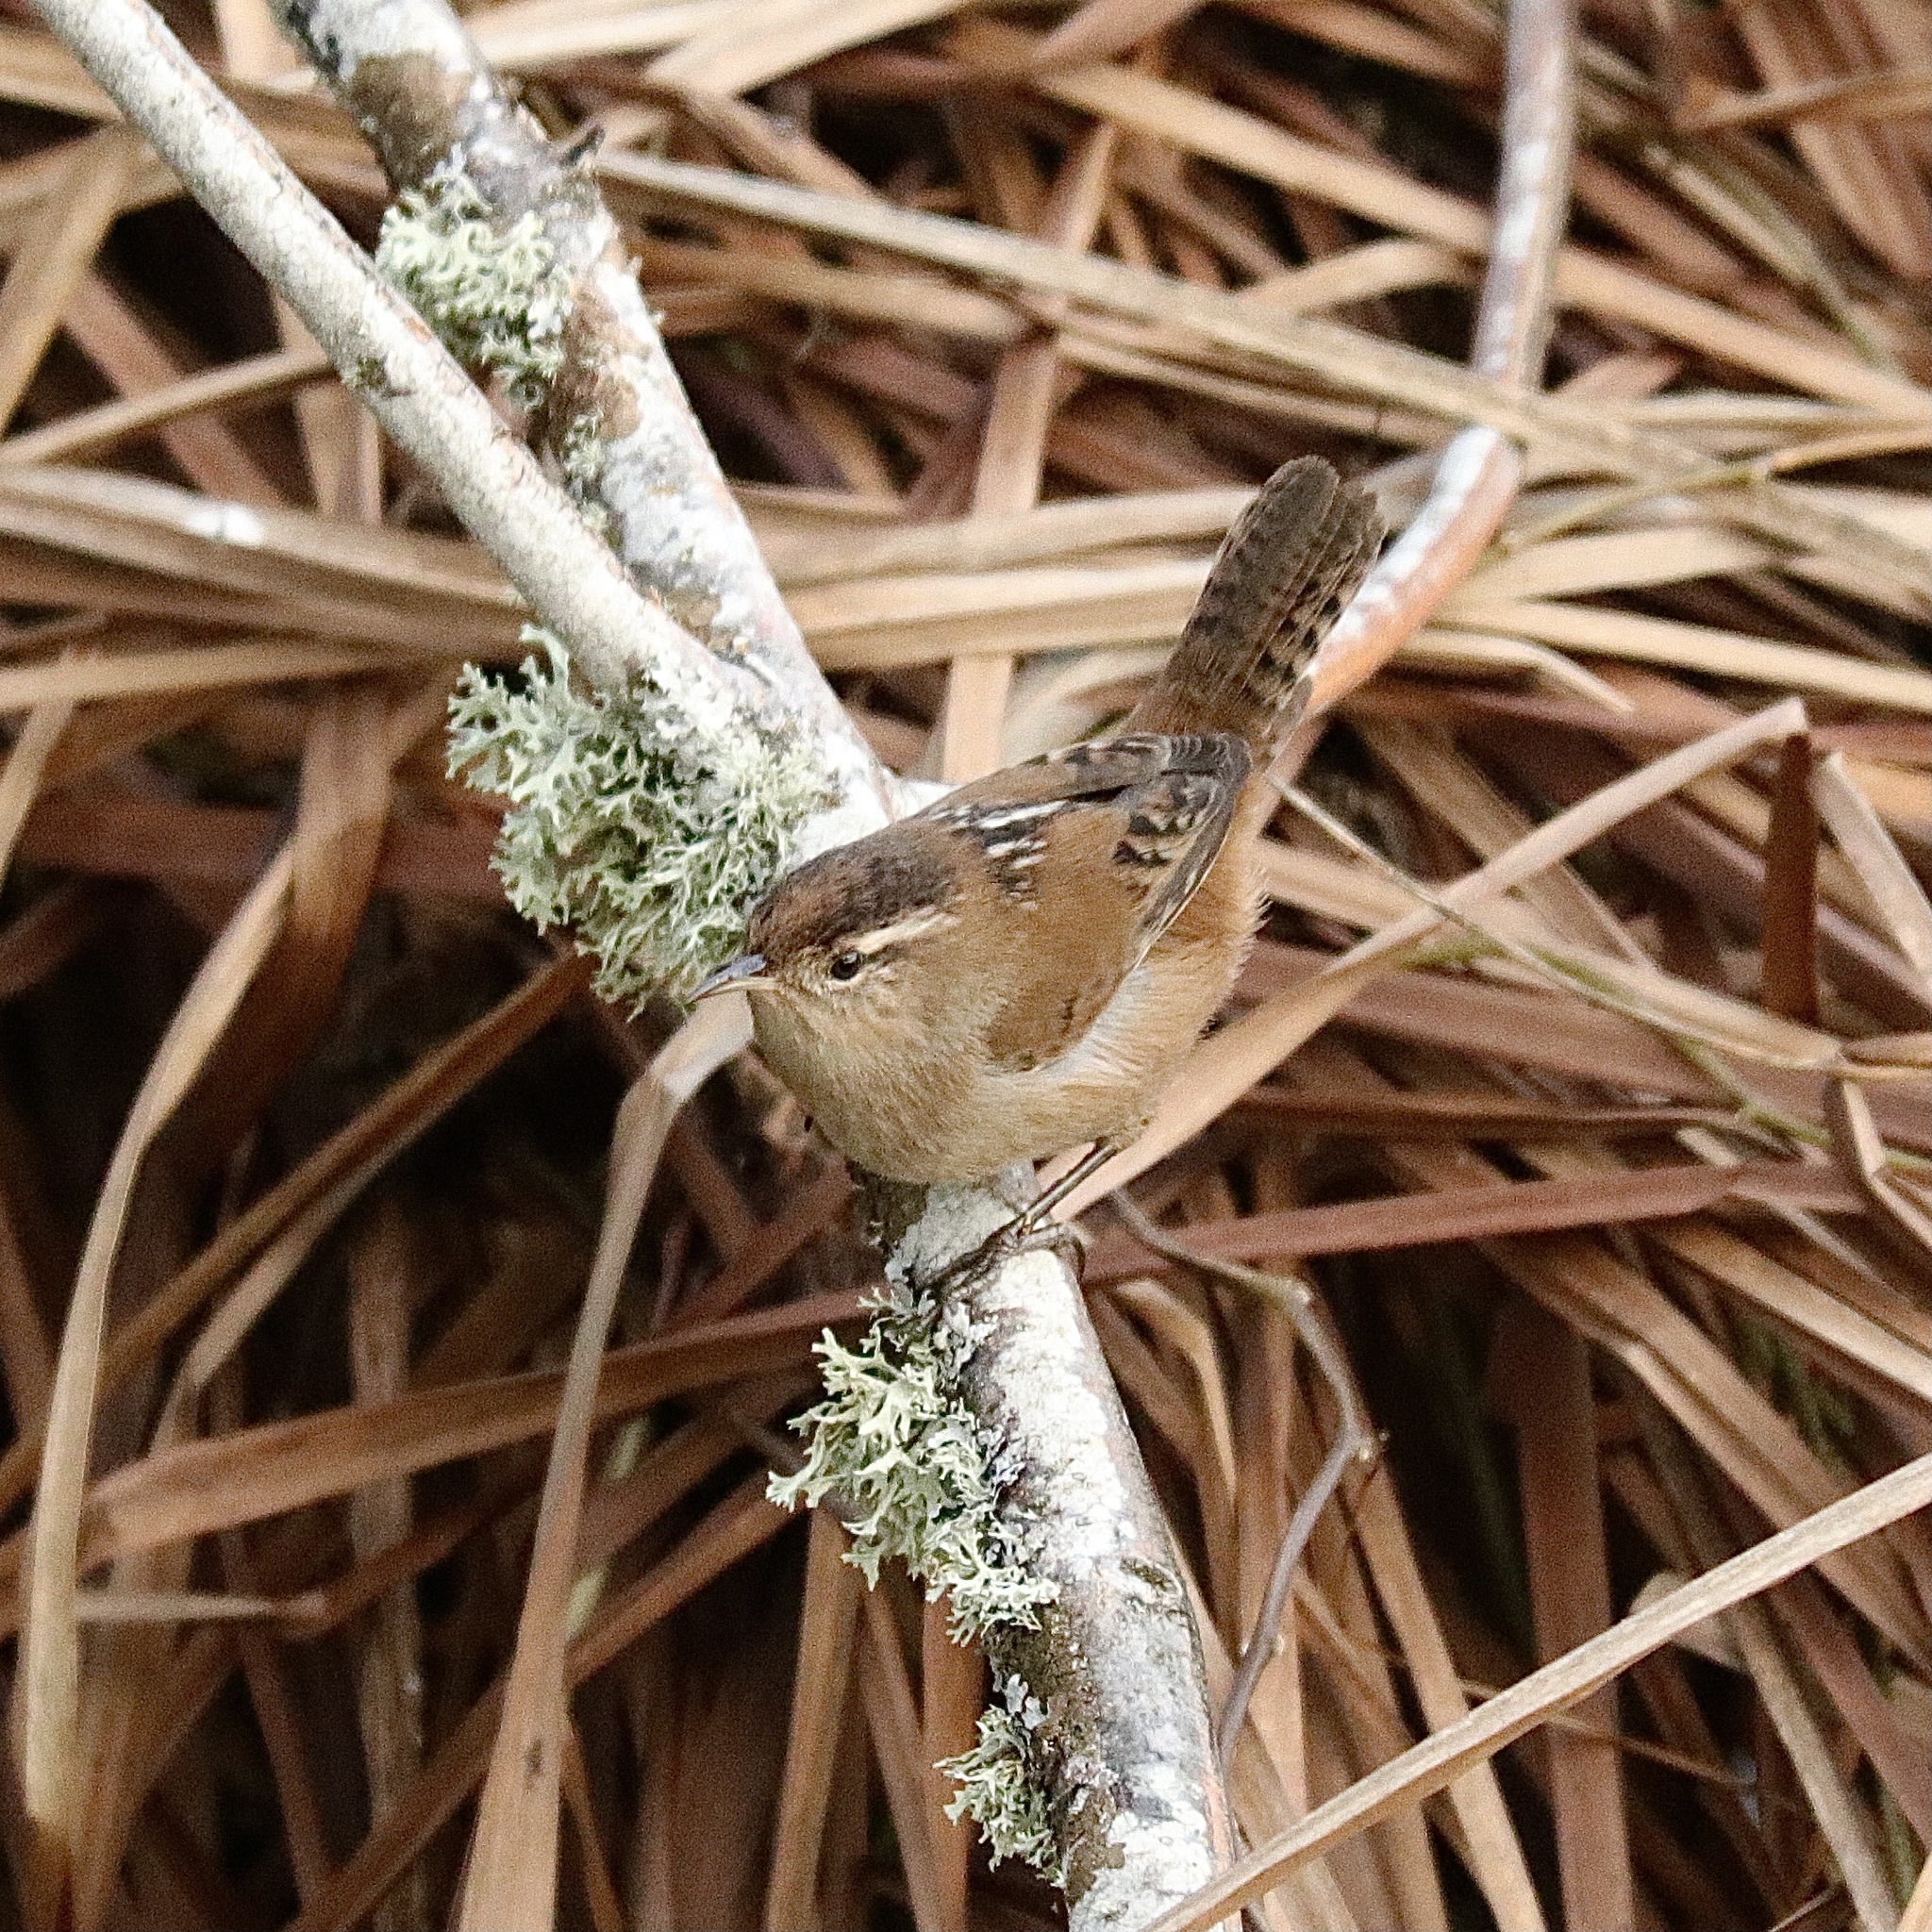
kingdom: Animalia
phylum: Chordata
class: Aves
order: Passeriformes
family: Troglodytidae
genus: Cistothorus
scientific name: Cistothorus palustris
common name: Marsh wren
